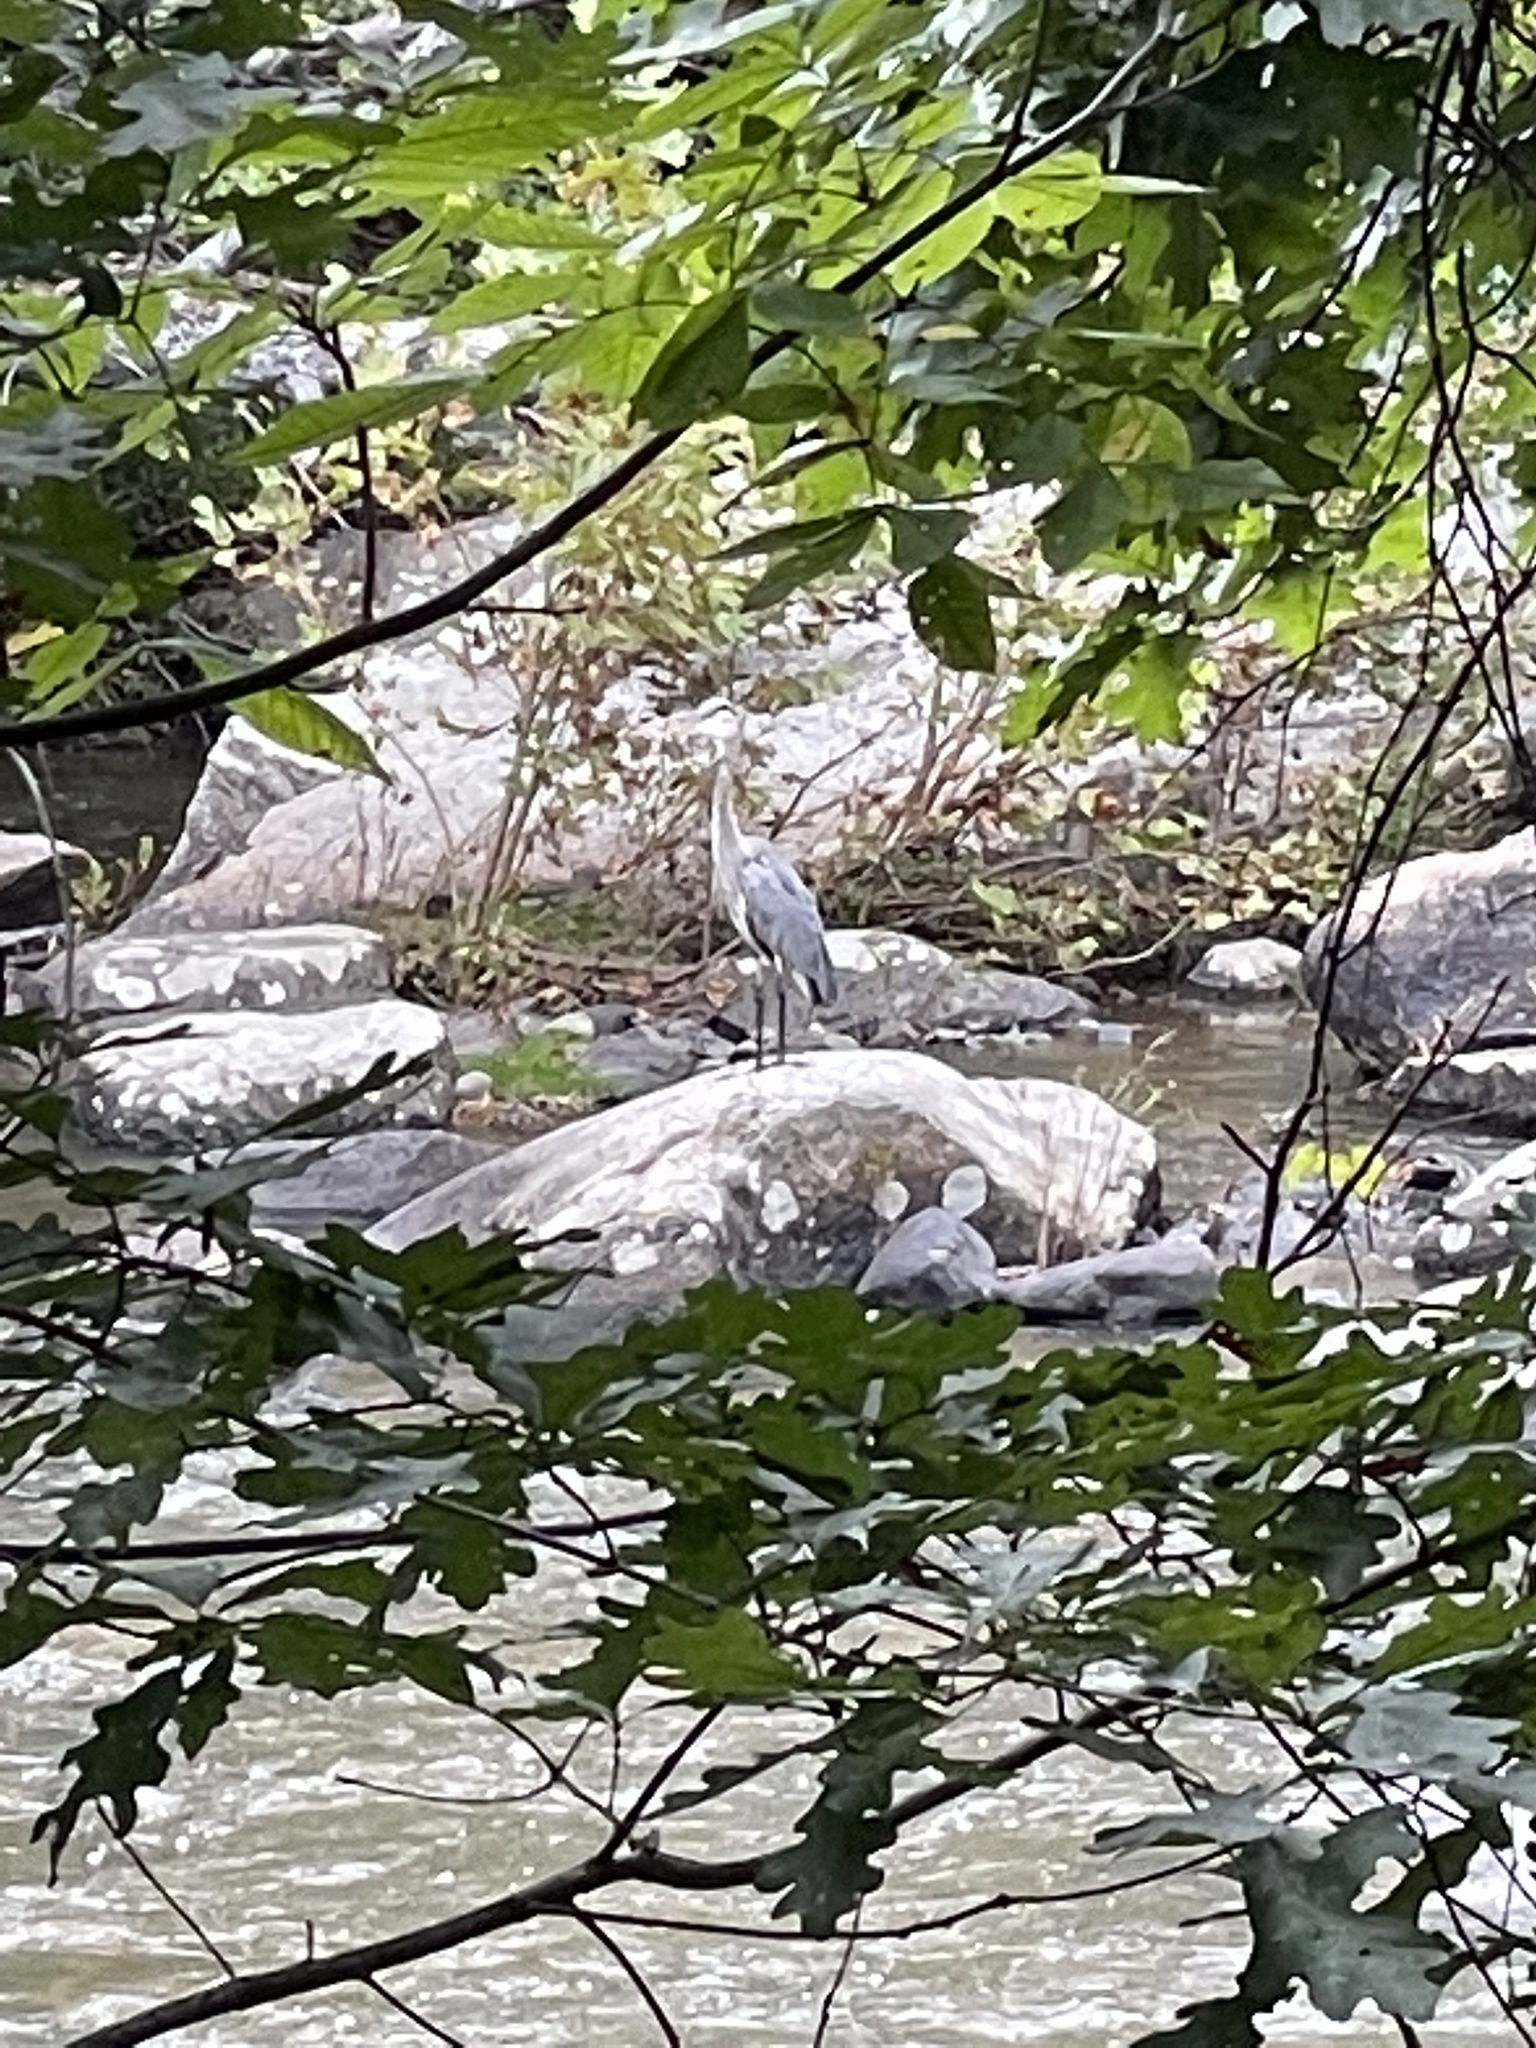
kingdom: Animalia
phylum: Chordata
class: Aves
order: Pelecaniformes
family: Ardeidae
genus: Ardea
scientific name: Ardea herodias
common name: Great blue heron
